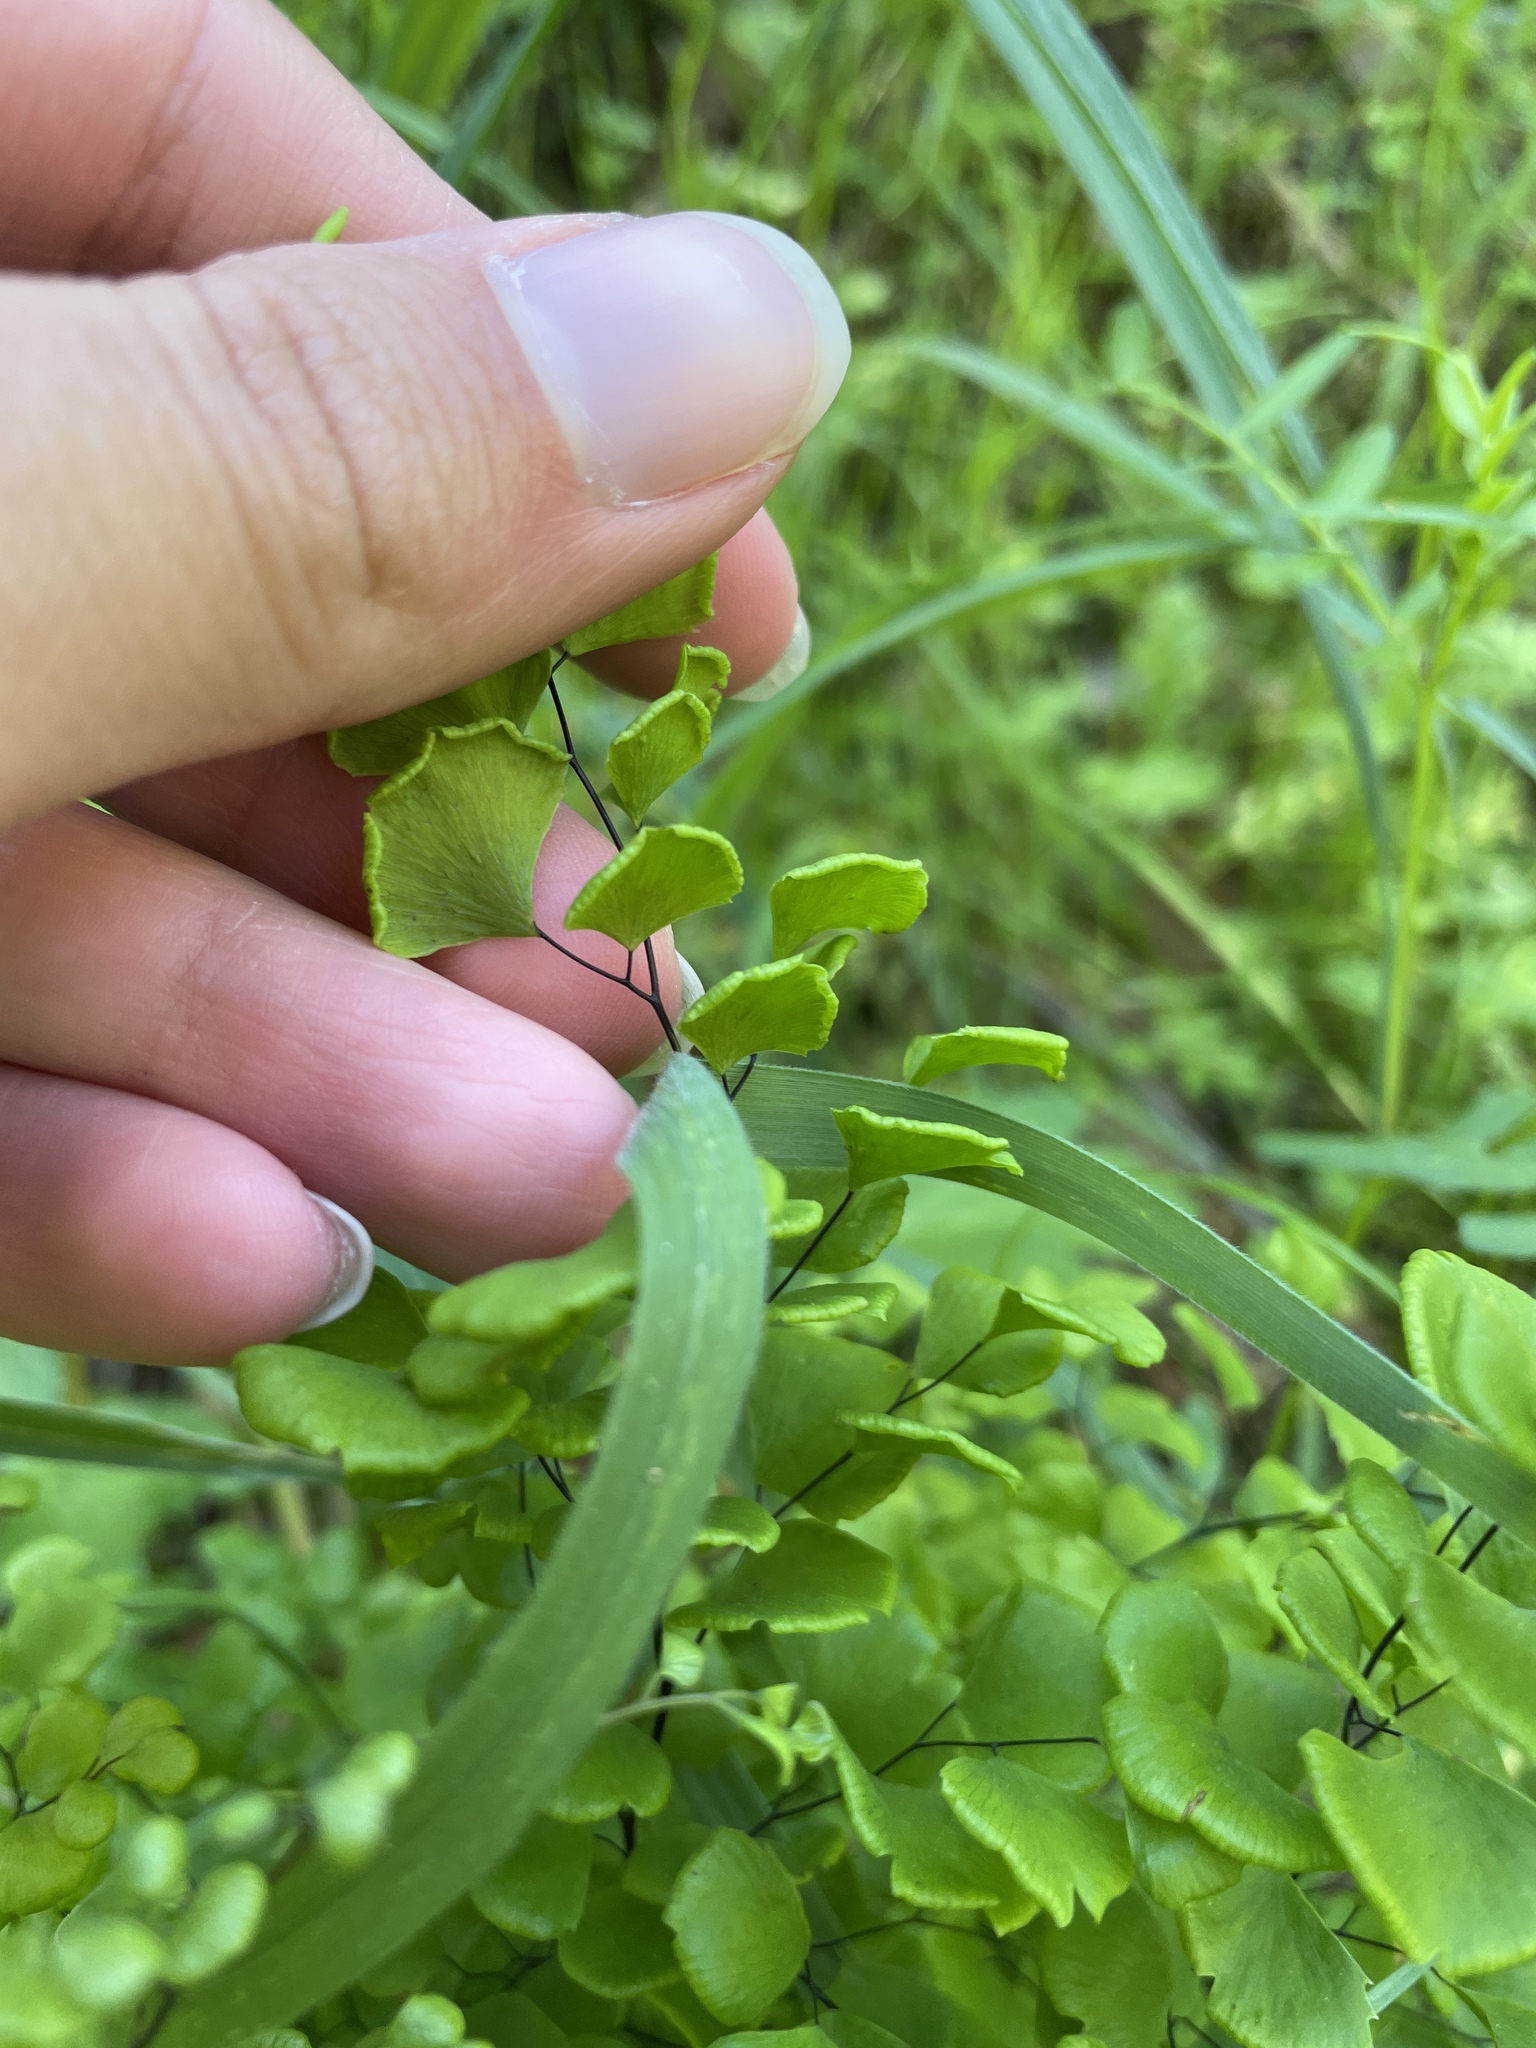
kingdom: Plantae
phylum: Tracheophyta
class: Polypodiopsida
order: Polypodiales
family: Pteridaceae
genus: Adiantum
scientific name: Adiantum jordanii
